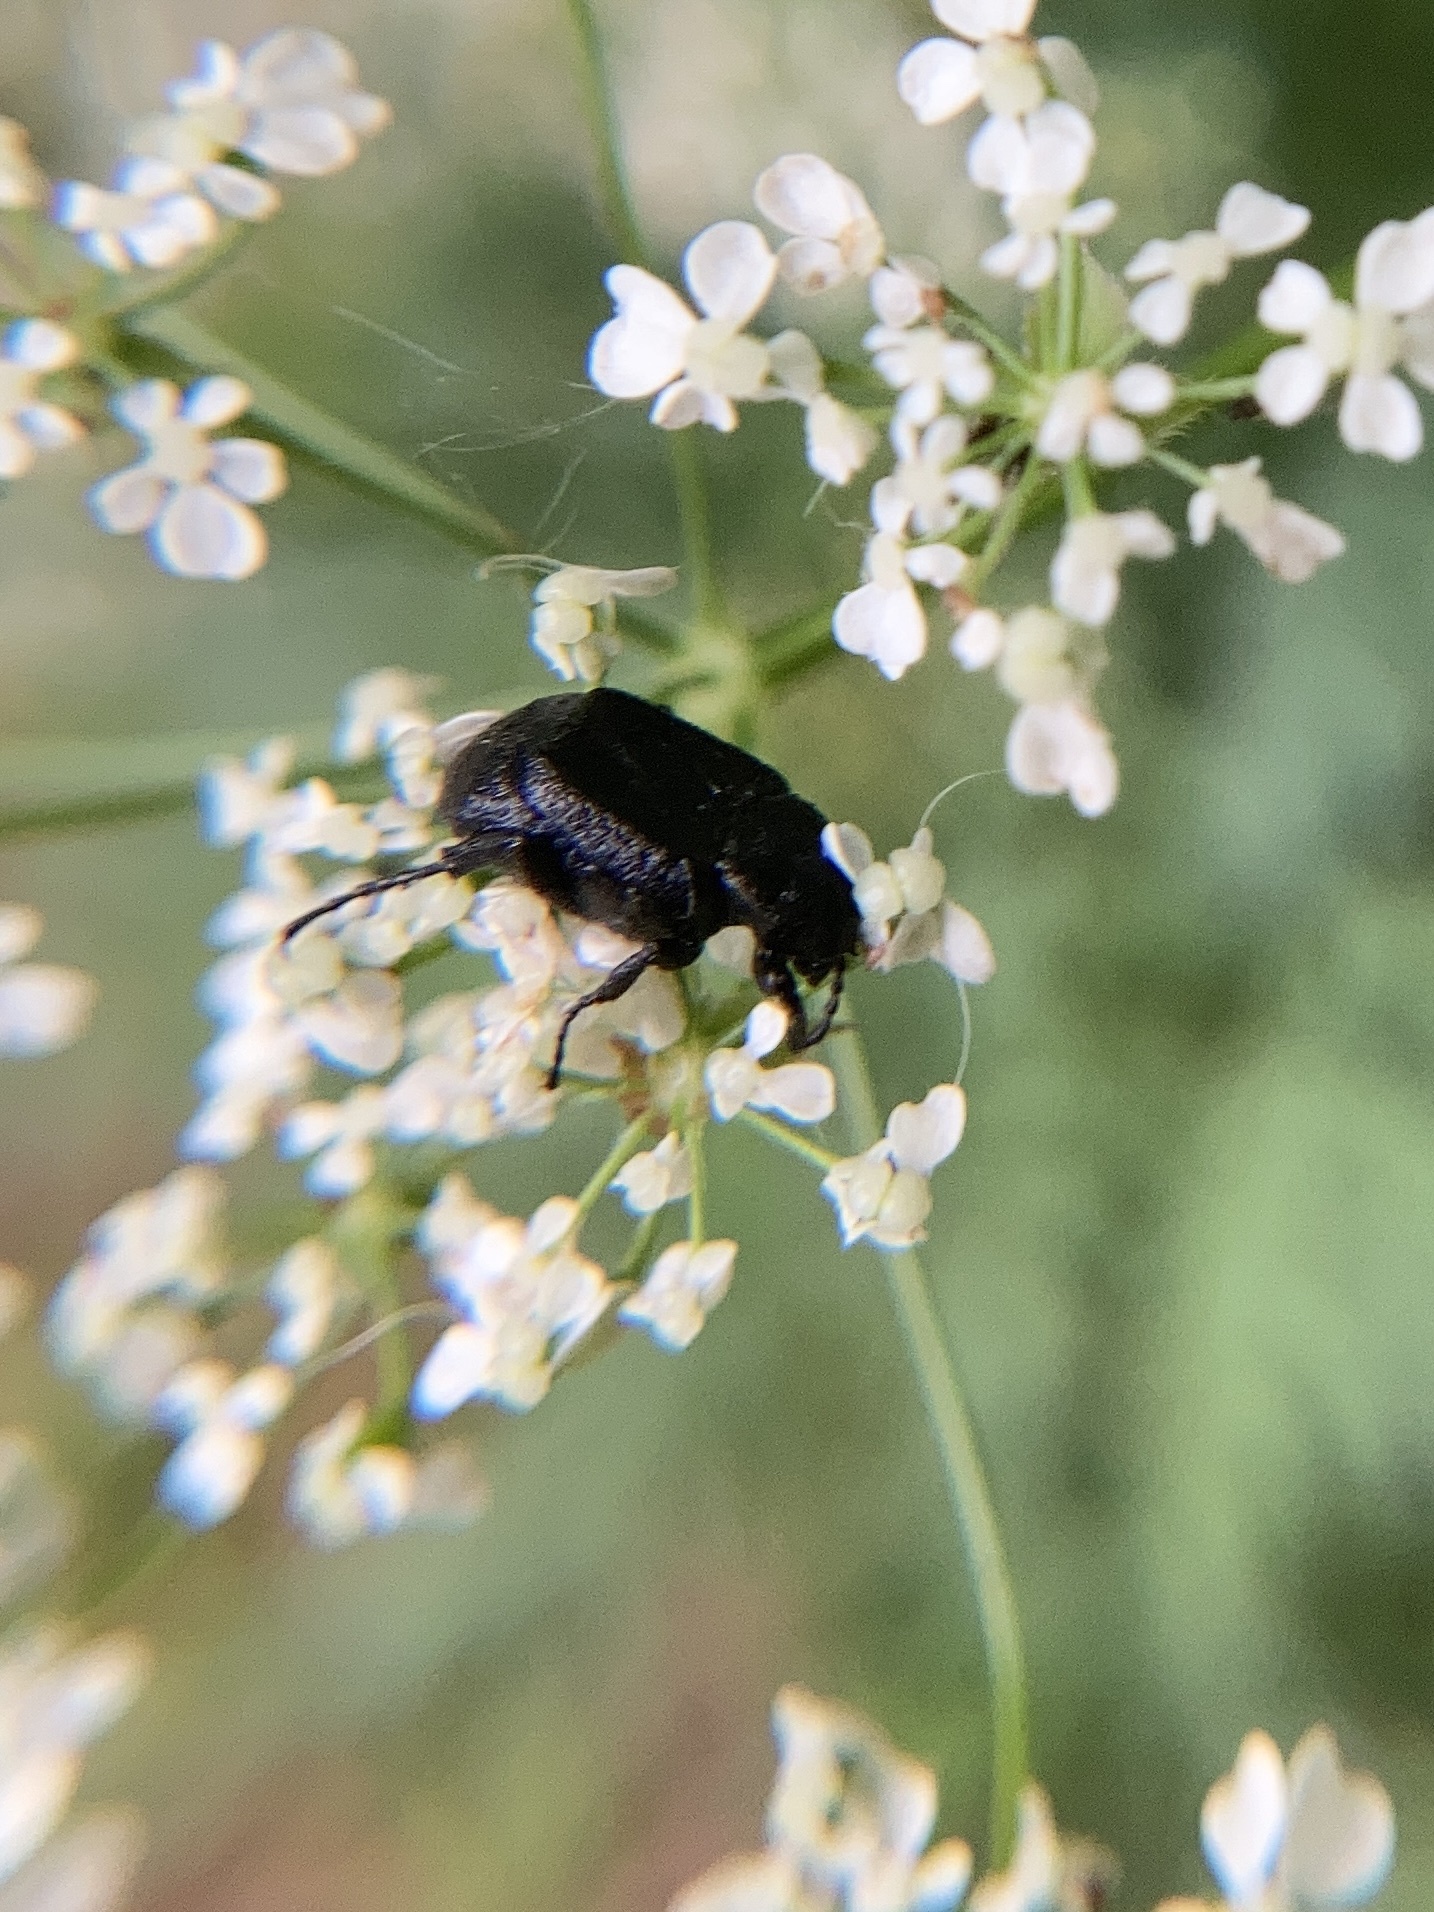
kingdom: Animalia
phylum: Arthropoda
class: Insecta
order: Coleoptera
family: Scarabaeidae
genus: Valgus
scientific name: Valgus hemipterus
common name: Bug flower chafer
